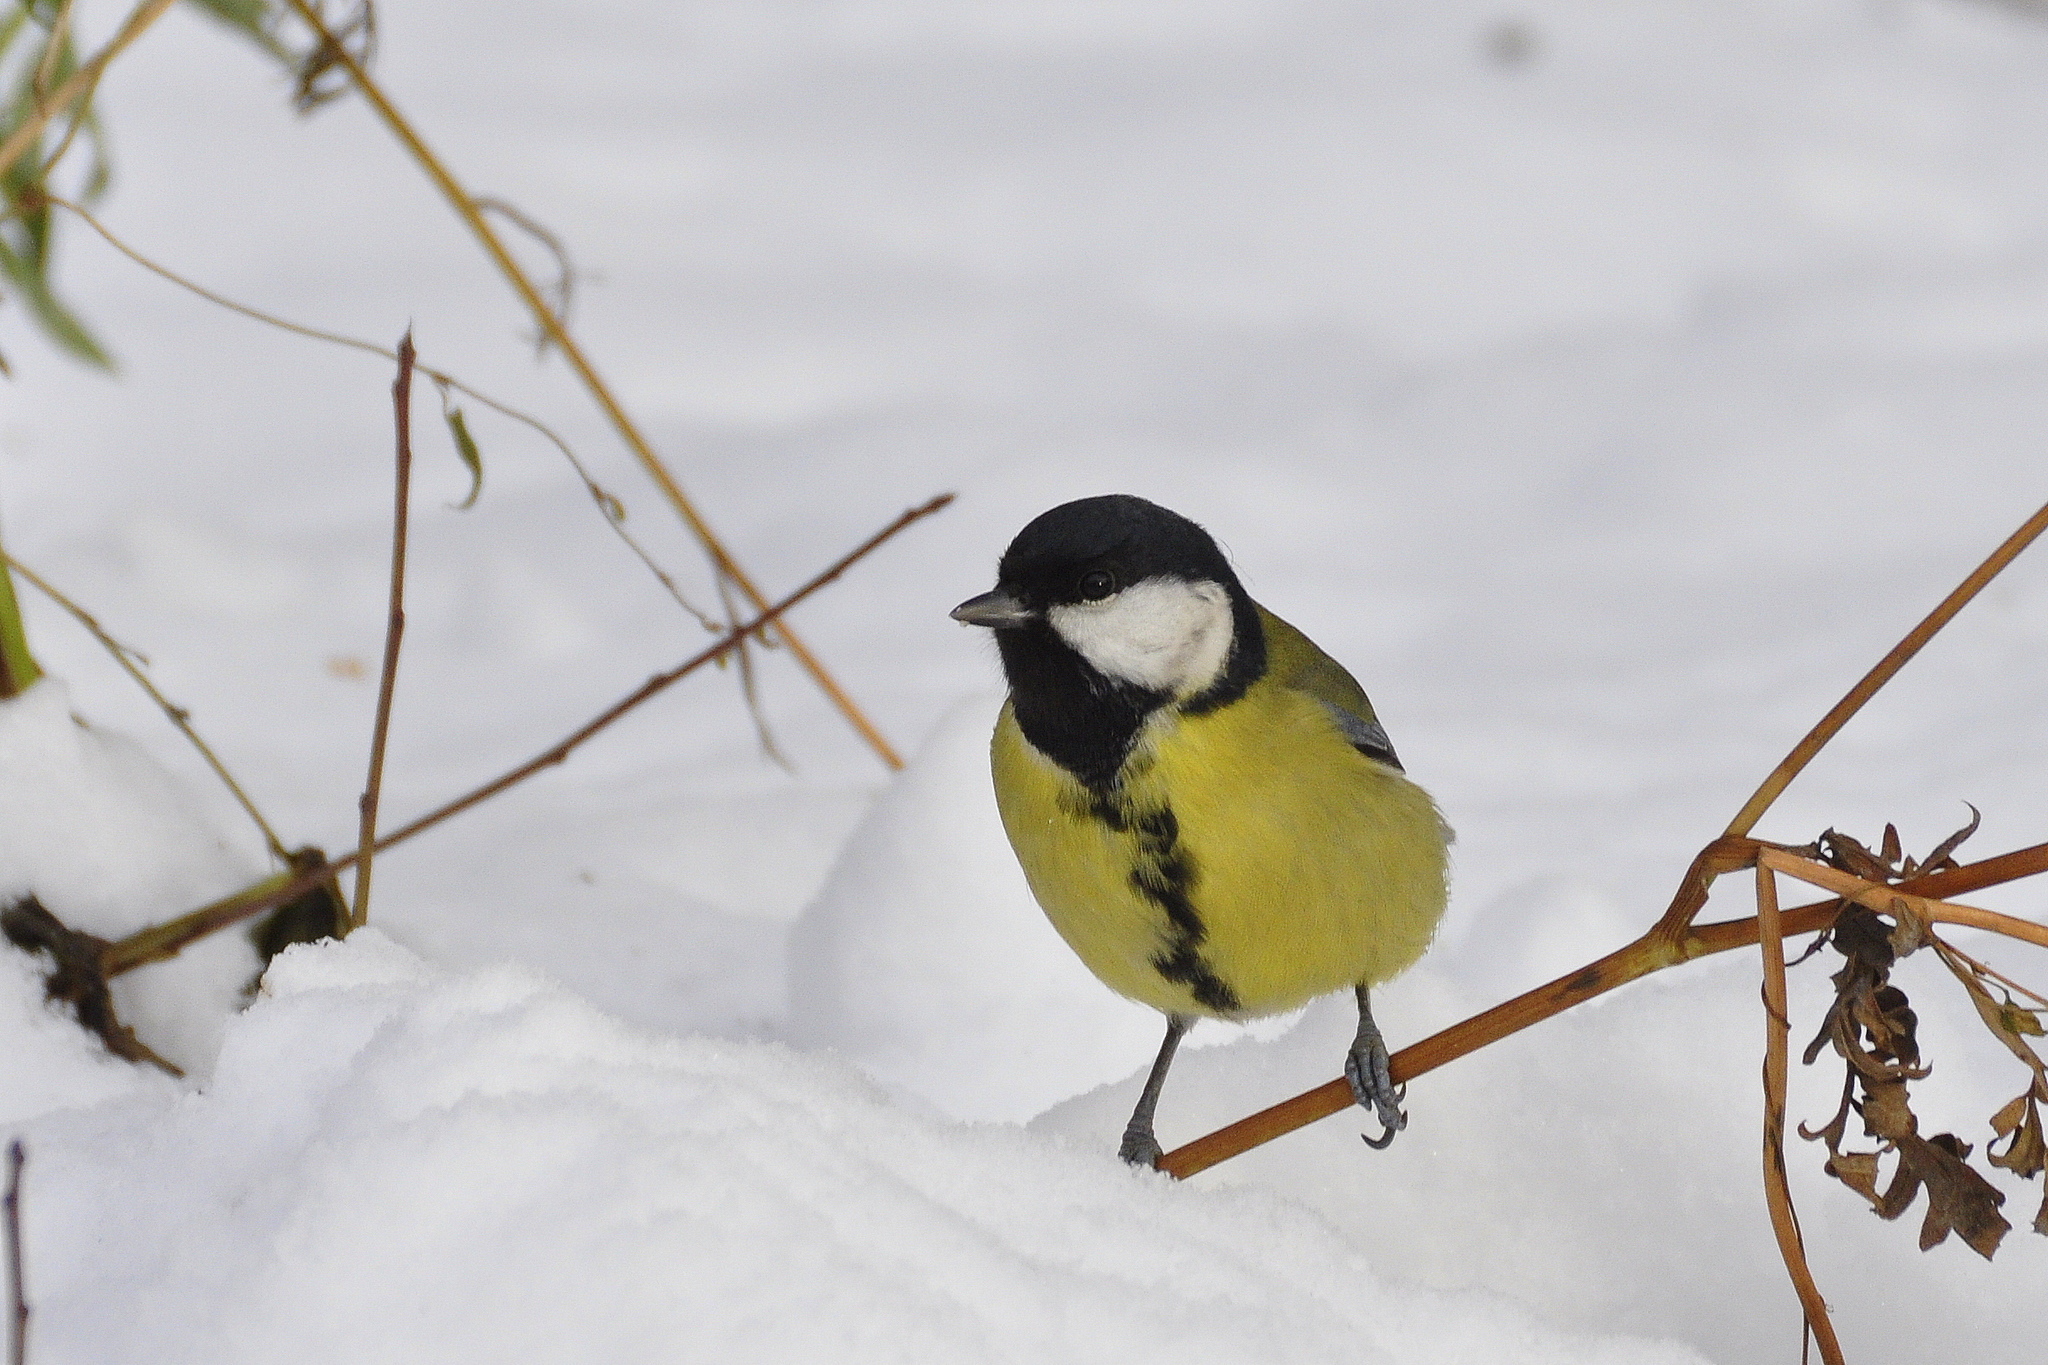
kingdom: Animalia
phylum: Chordata
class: Aves
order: Passeriformes
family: Paridae
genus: Parus
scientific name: Parus major
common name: Great tit
